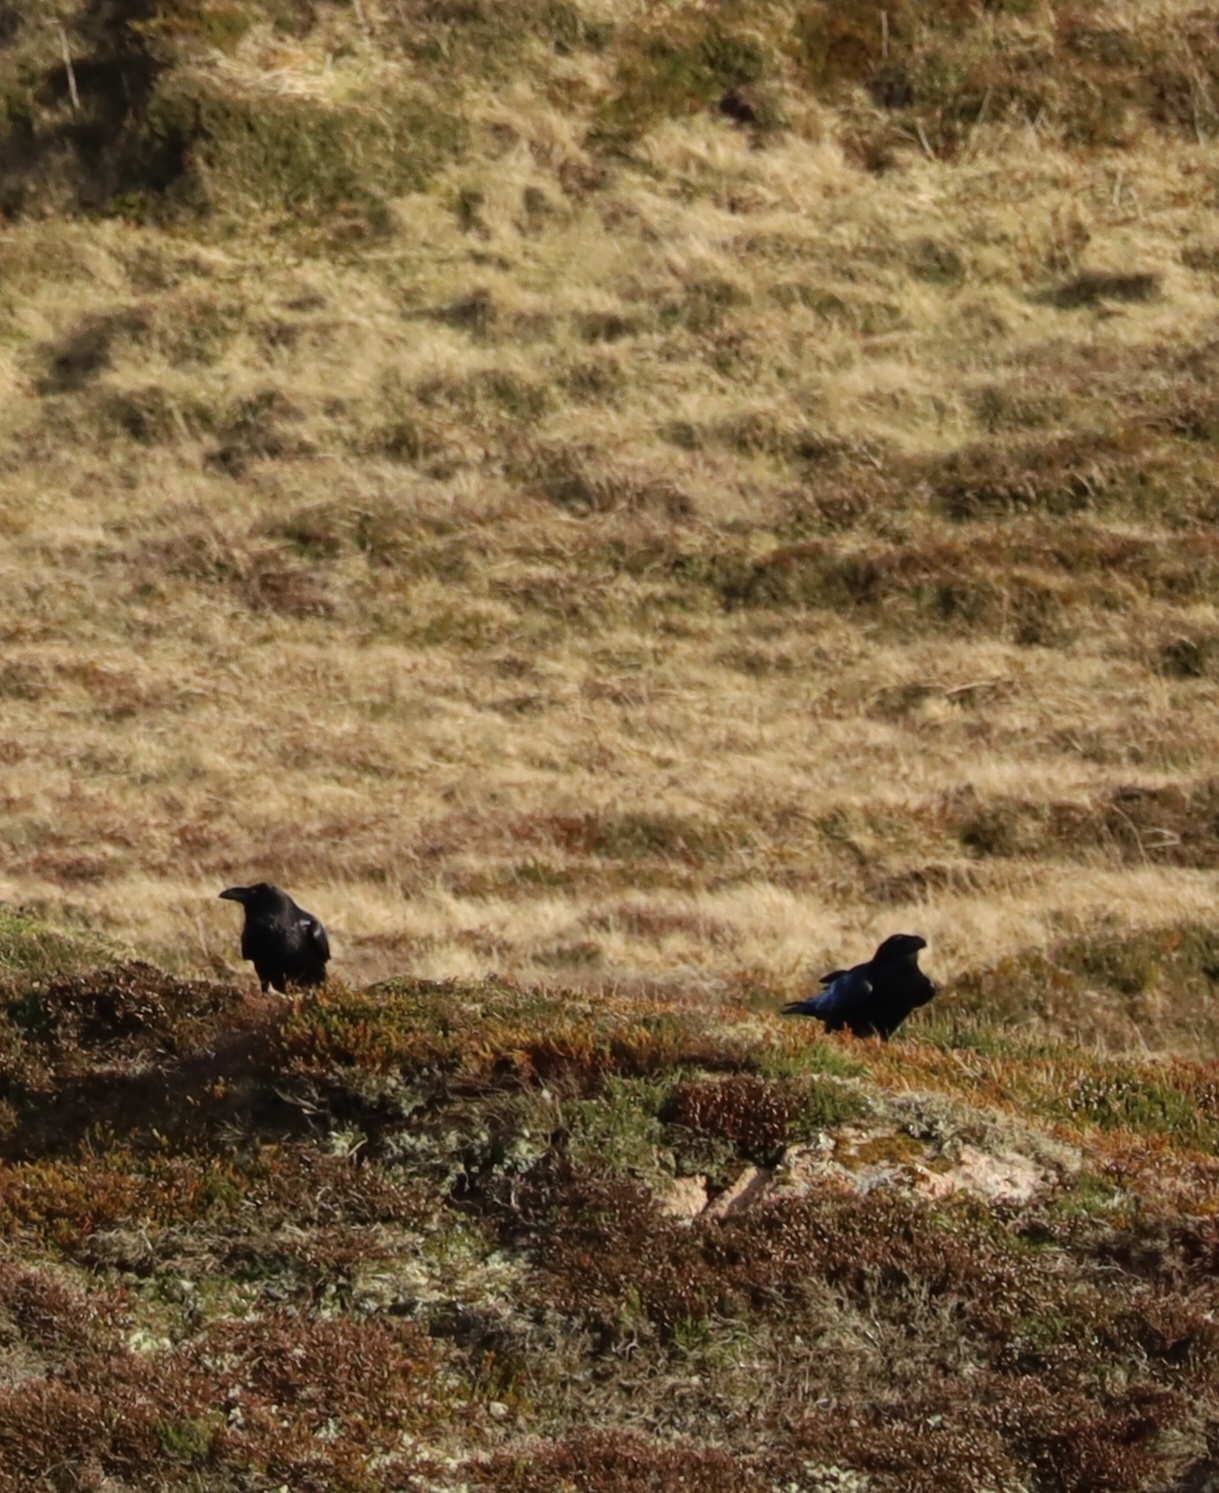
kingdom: Animalia
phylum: Chordata
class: Aves
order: Passeriformes
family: Corvidae
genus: Corvus
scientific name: Corvus corax
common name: Common raven
